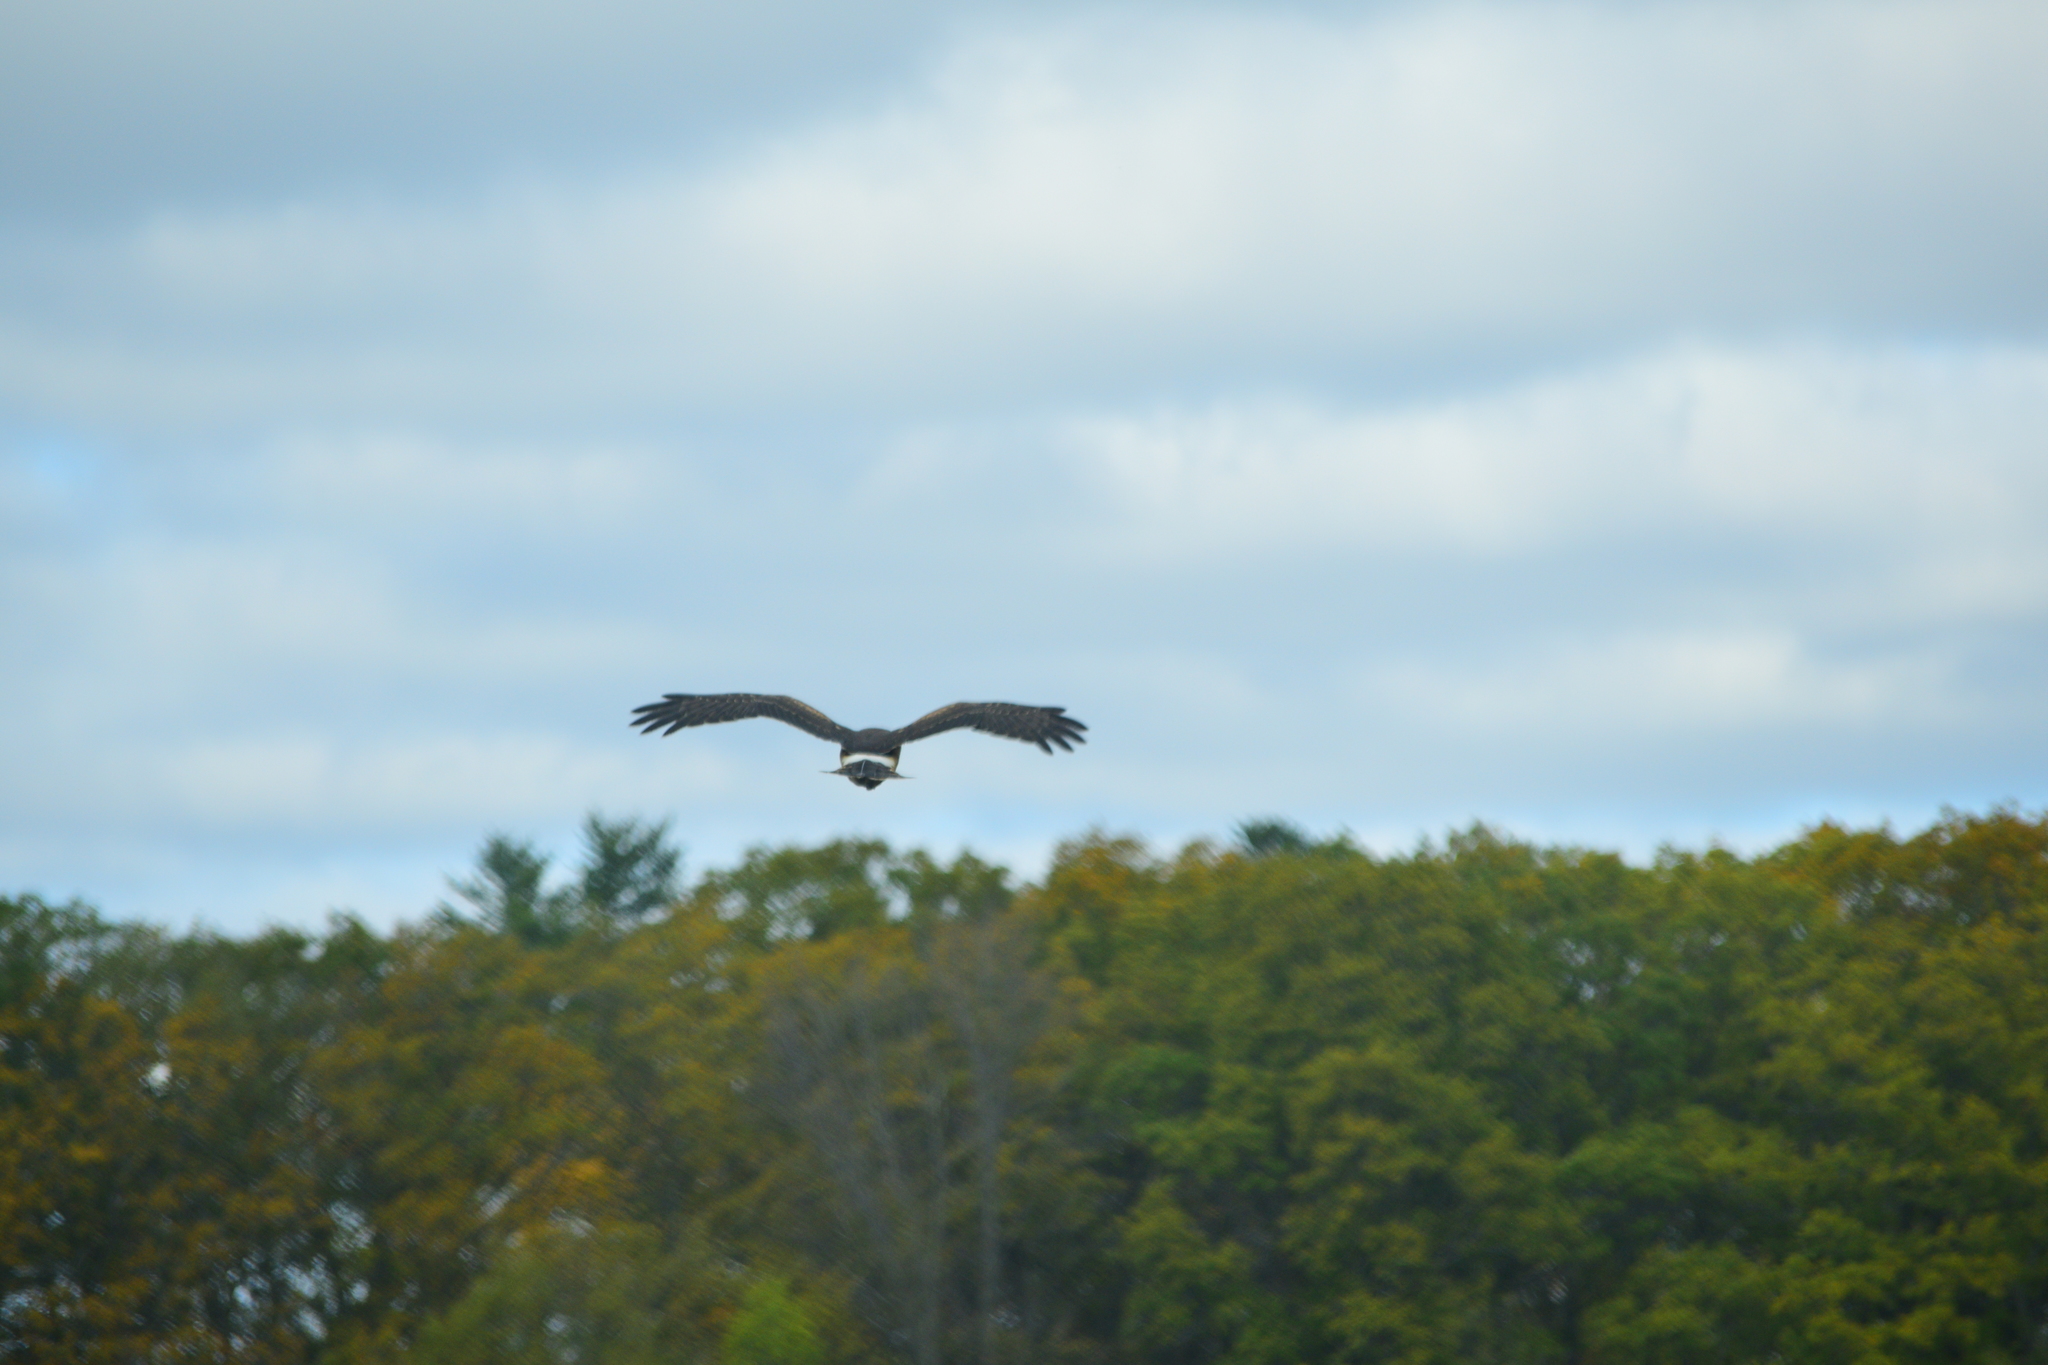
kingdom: Animalia
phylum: Chordata
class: Aves
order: Accipitriformes
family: Accipitridae
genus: Haliaeetus
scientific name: Haliaeetus leucocephalus
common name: Bald eagle
